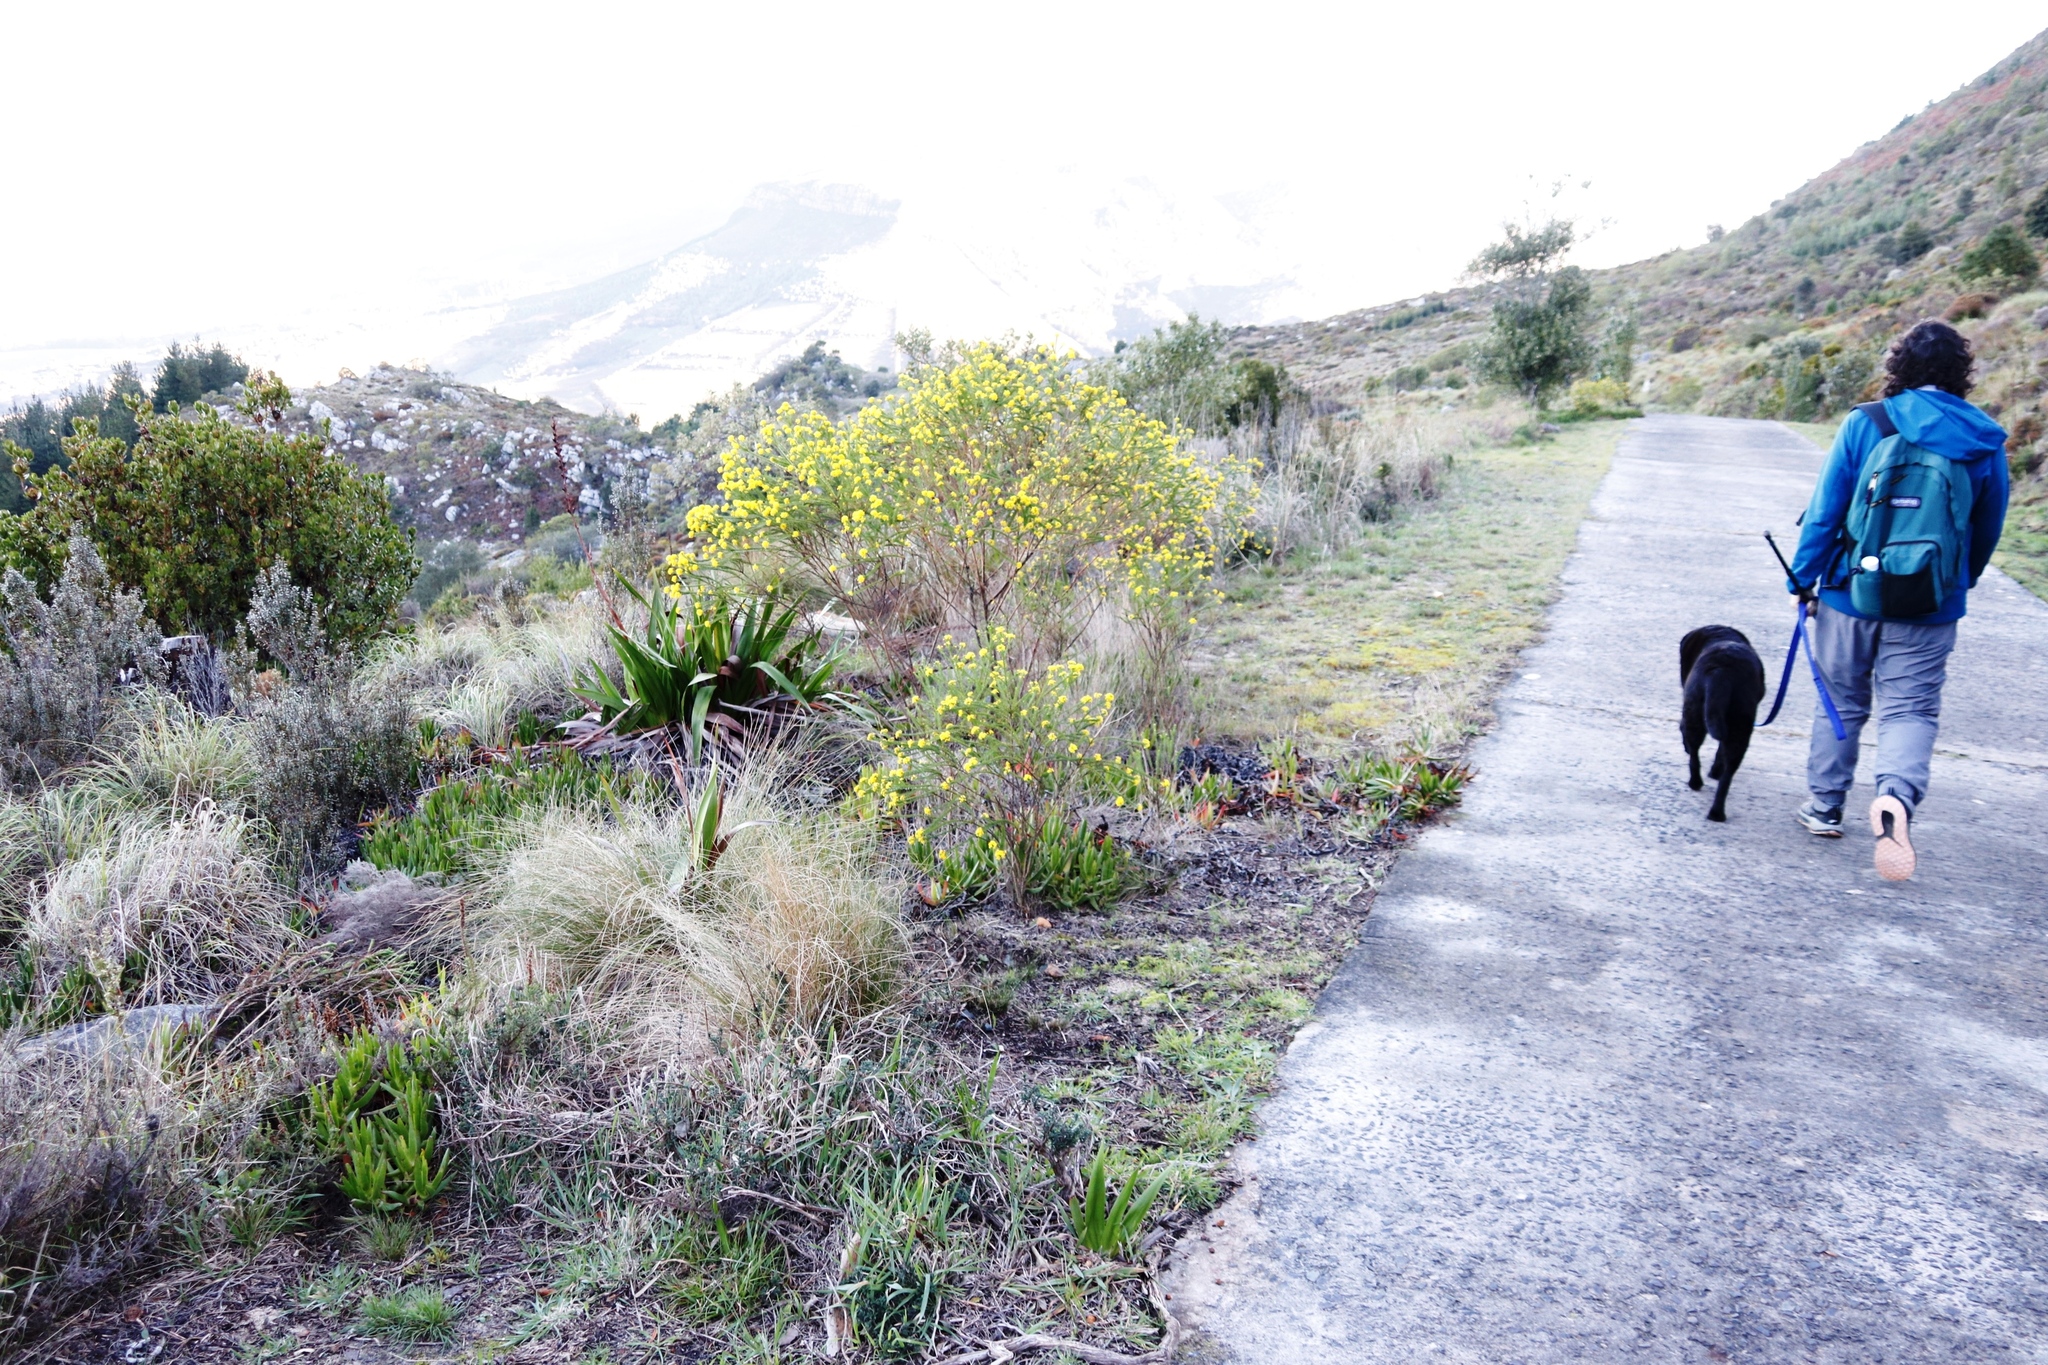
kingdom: Plantae
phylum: Tracheophyta
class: Magnoliopsida
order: Asterales
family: Asteraceae
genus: Euryops
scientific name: Euryops virgineus
